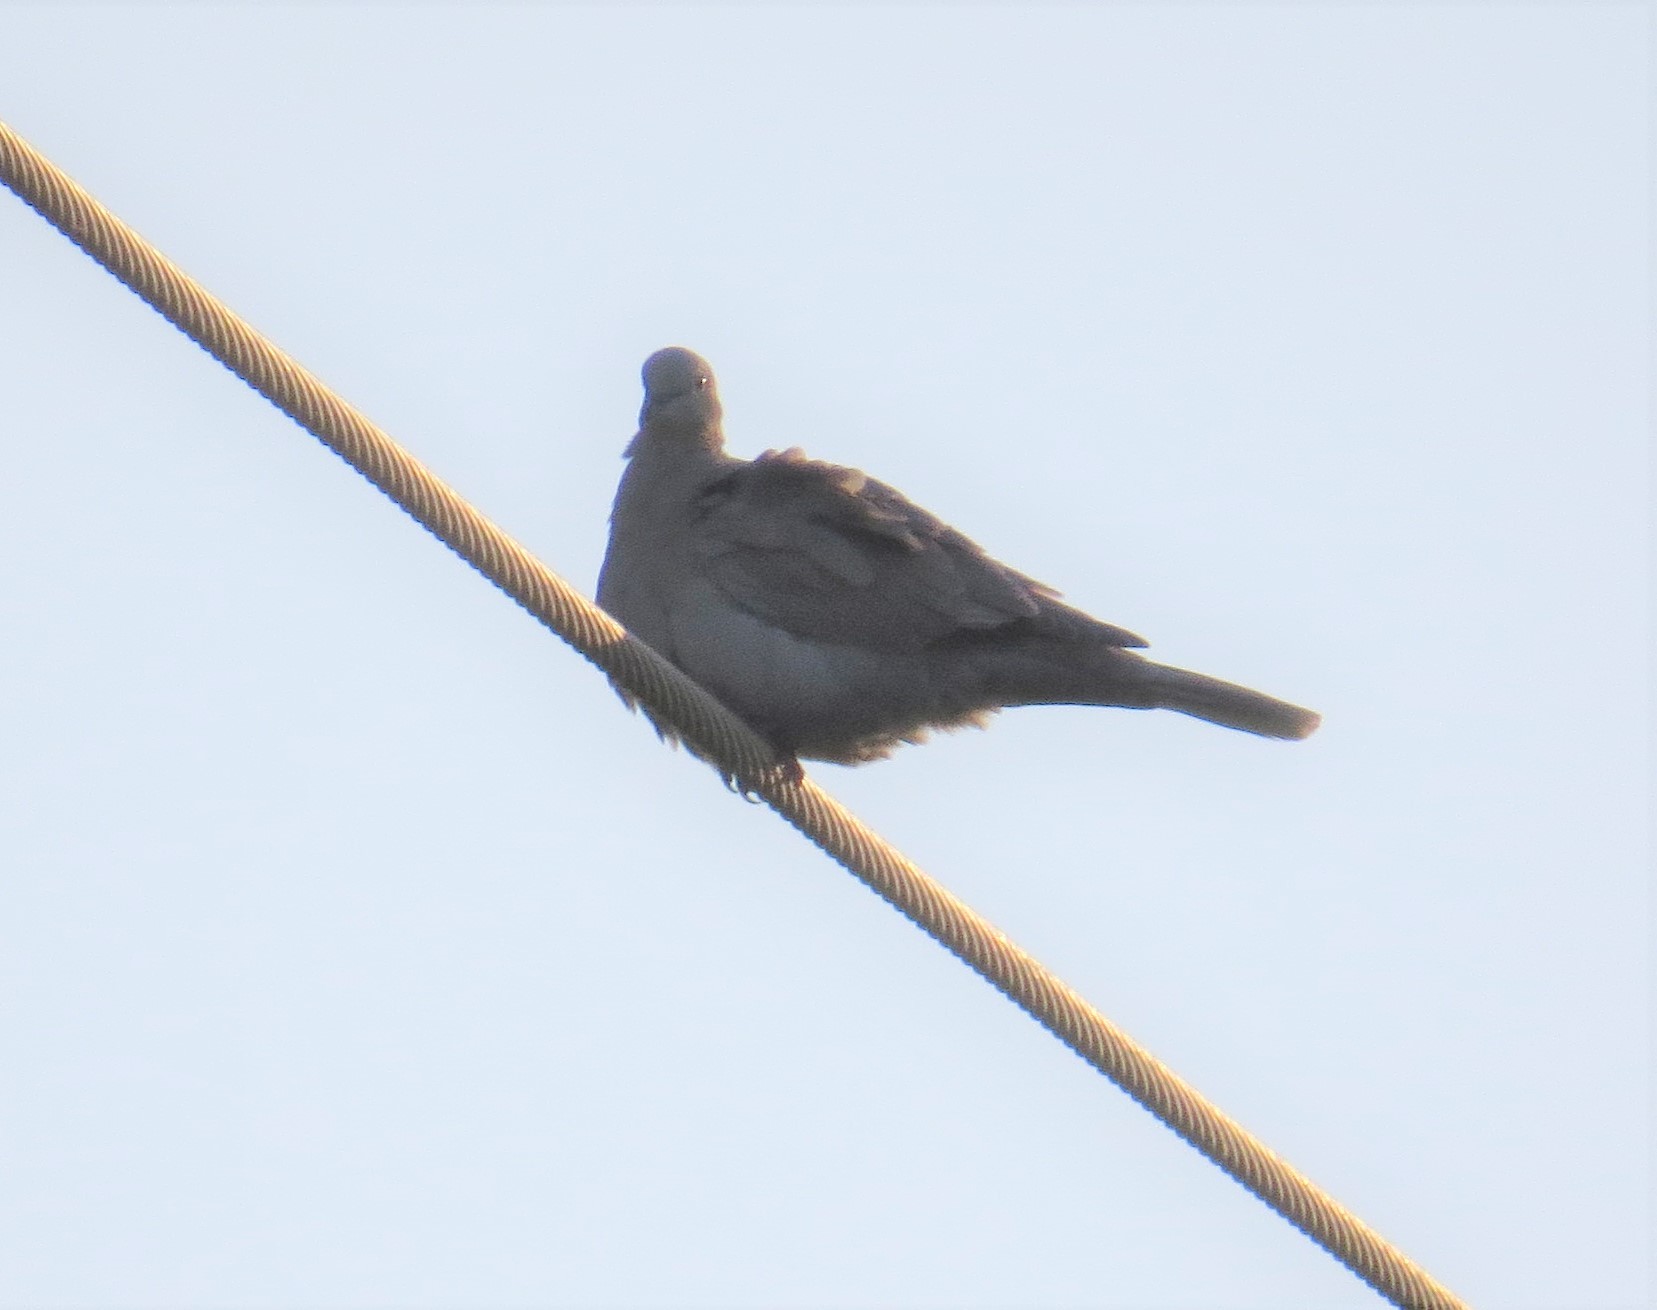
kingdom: Animalia
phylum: Chordata
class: Aves
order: Columbiformes
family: Columbidae
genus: Zenaida
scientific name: Zenaida macroura
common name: Mourning dove
